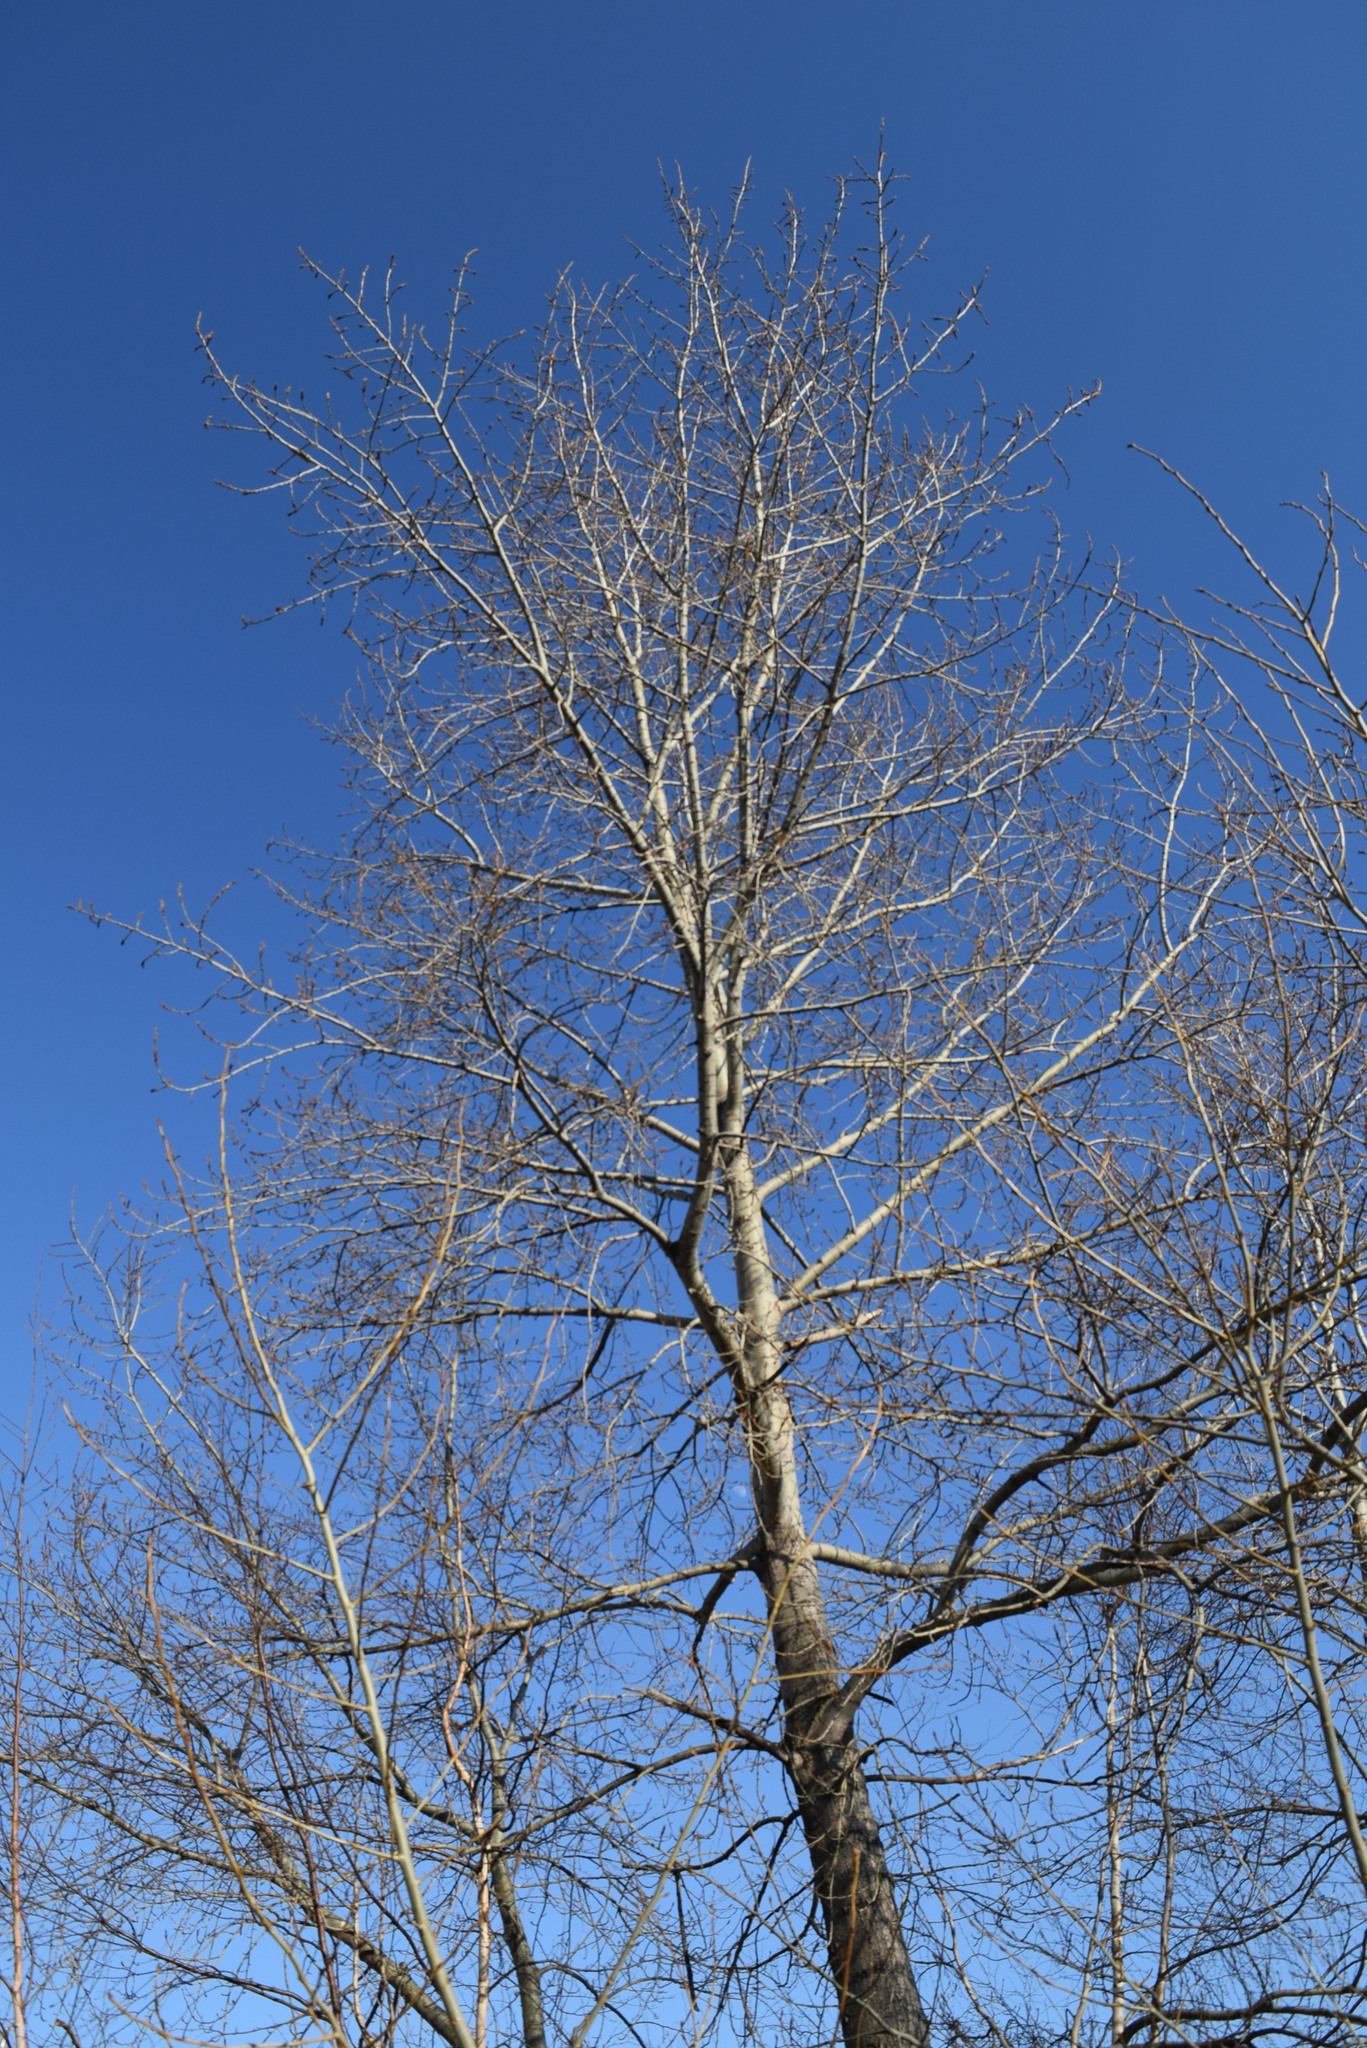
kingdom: Plantae
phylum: Tracheophyta
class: Magnoliopsida
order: Malpighiales
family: Salicaceae
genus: Populus
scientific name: Populus sibirica
